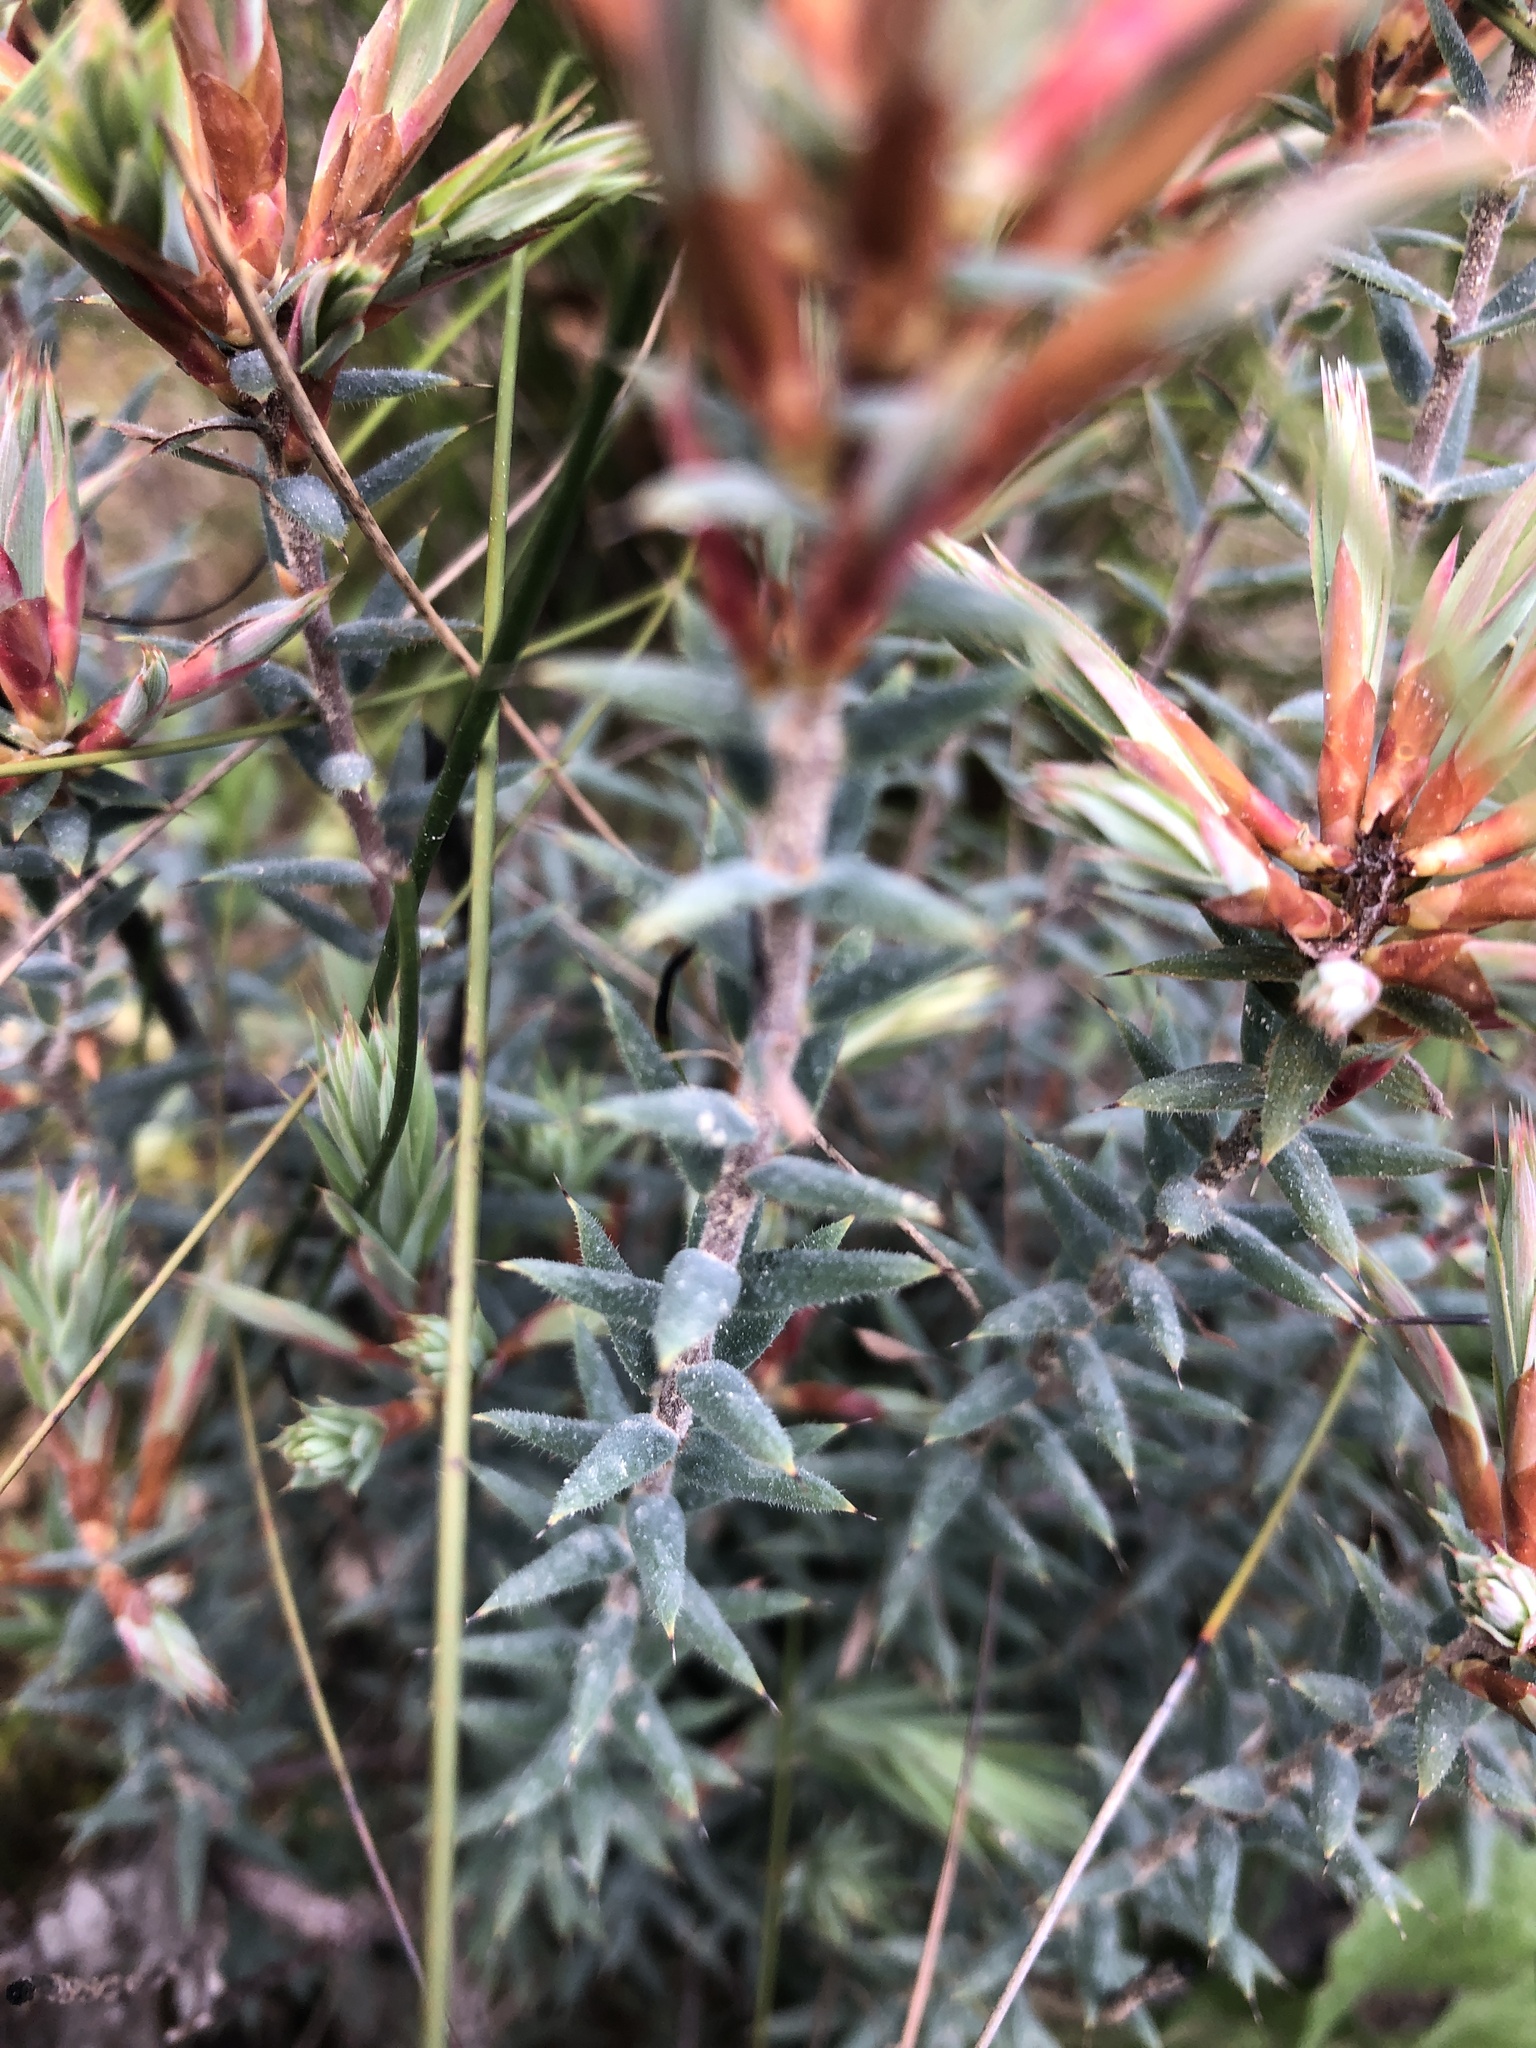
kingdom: Plantae
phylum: Tracheophyta
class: Magnoliopsida
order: Ericales
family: Ericaceae
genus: Stenanthera
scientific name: Stenanthera conostephioides
